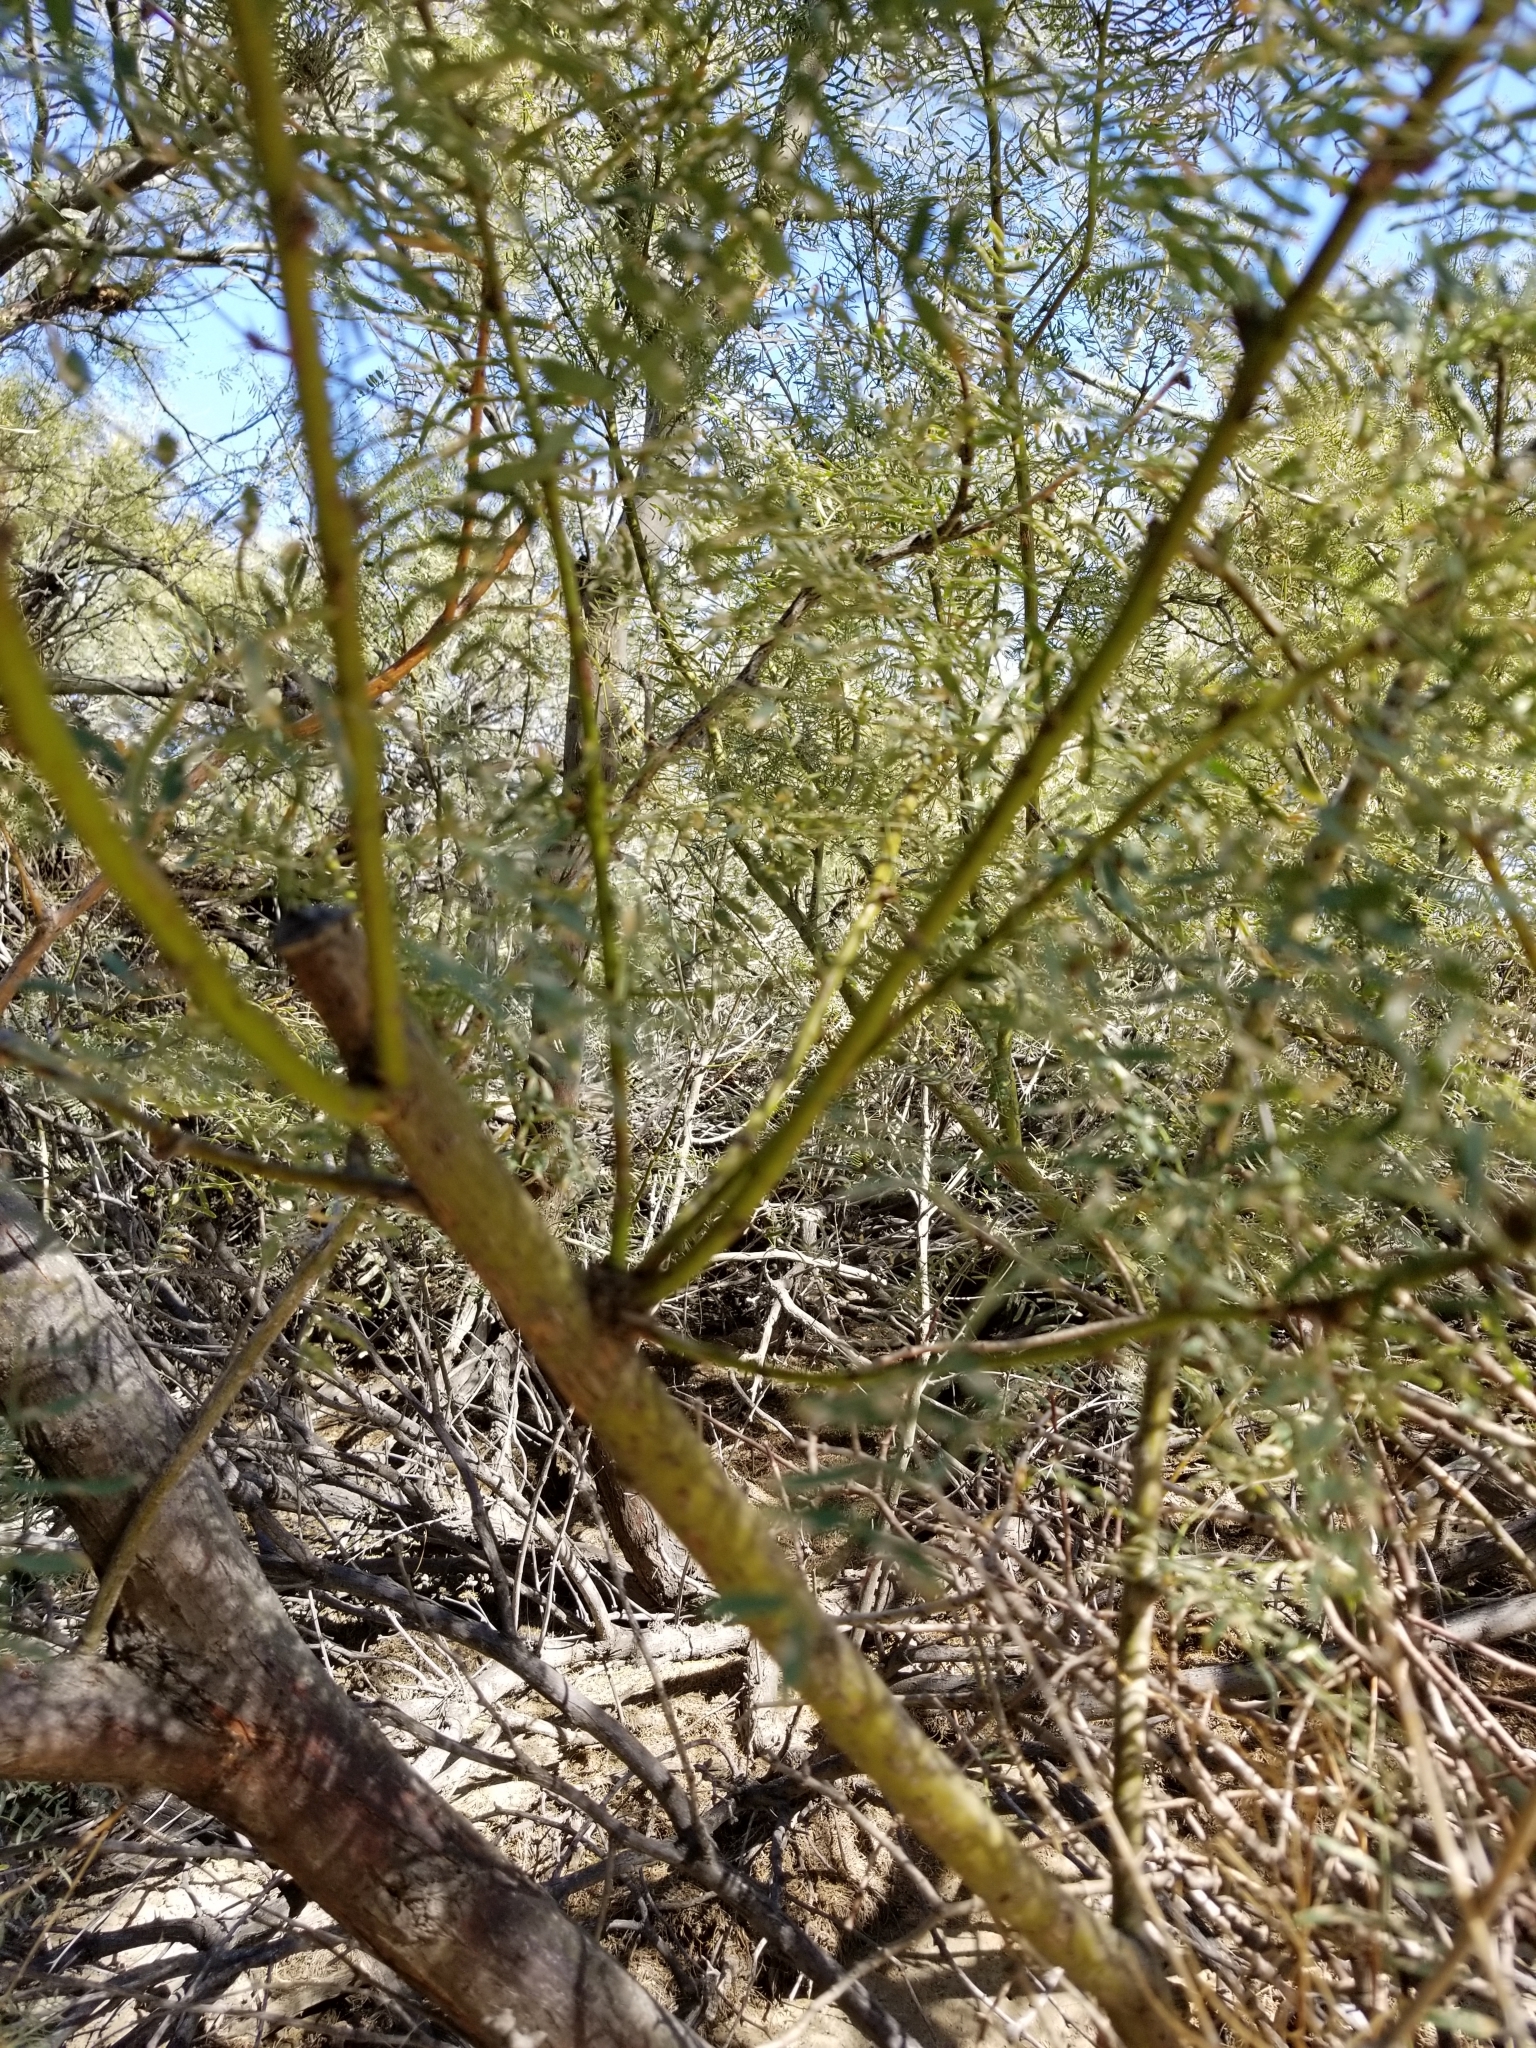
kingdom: Plantae
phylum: Tracheophyta
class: Magnoliopsida
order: Fabales
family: Fabaceae
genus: Prosopis
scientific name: Prosopis pubescens
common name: Screw-bean
